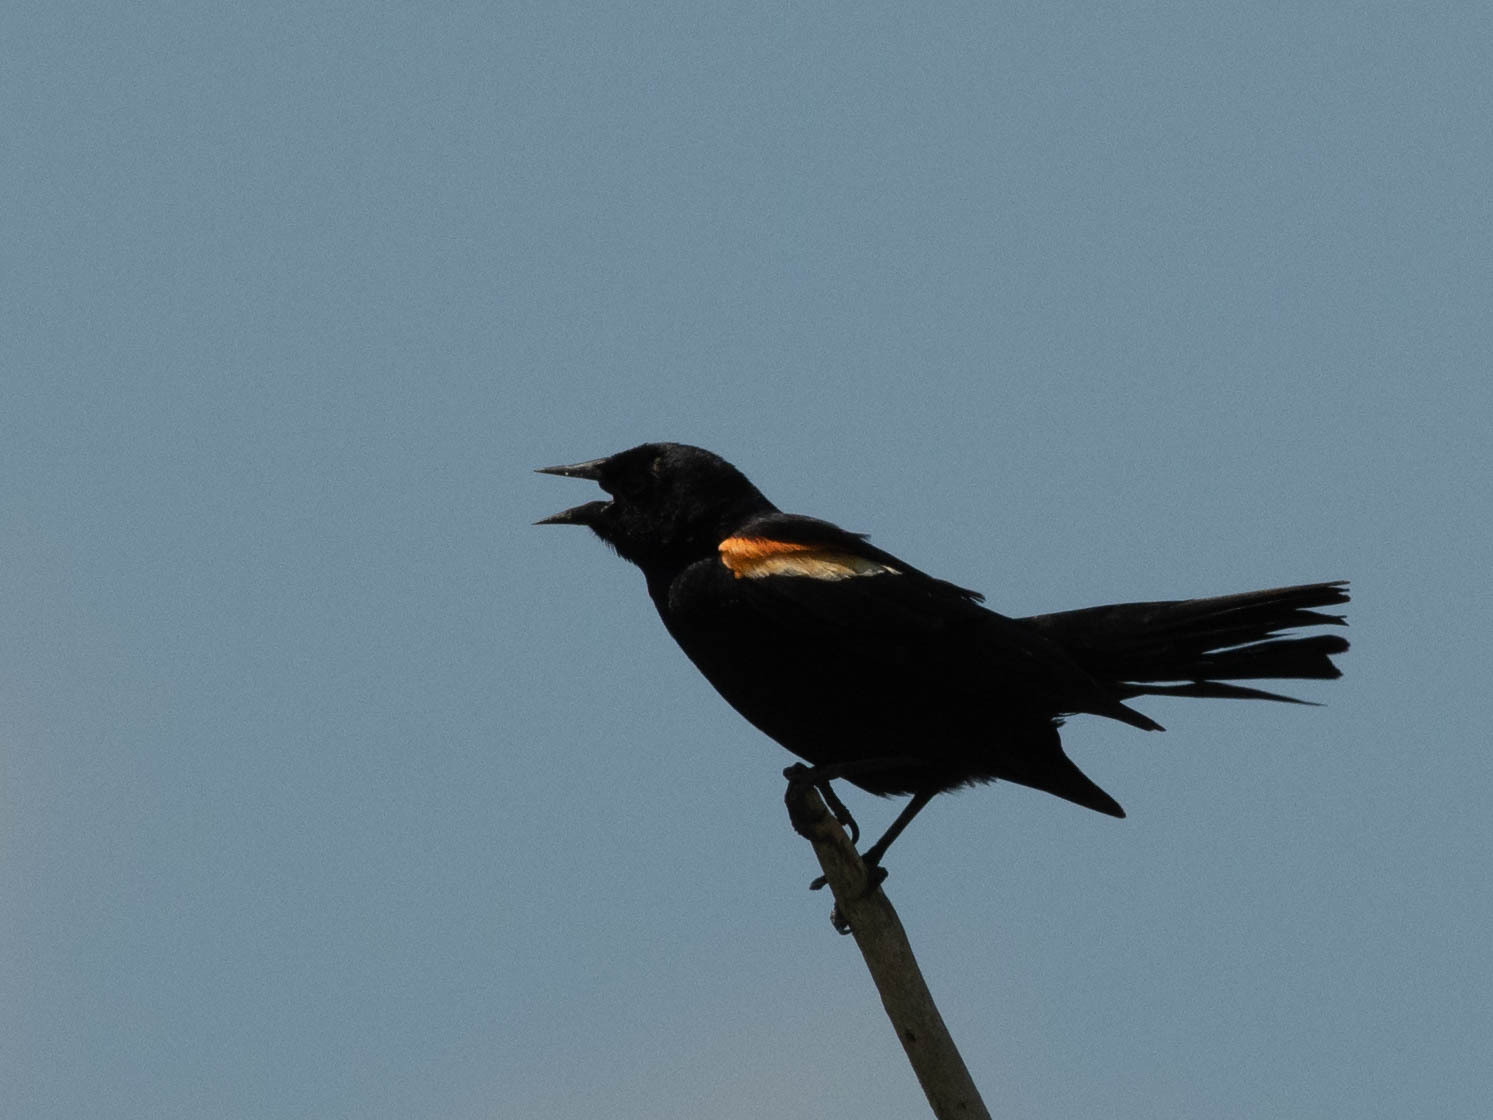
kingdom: Animalia
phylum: Chordata
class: Aves
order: Passeriformes
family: Icteridae
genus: Agelaius
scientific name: Agelaius phoeniceus
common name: Red-winged blackbird
